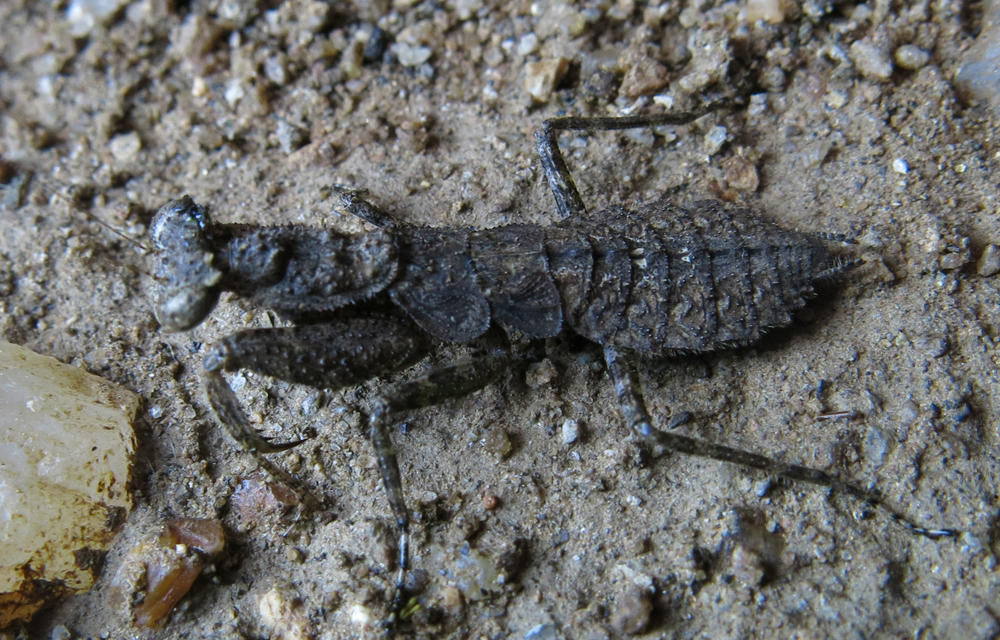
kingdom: Animalia
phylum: Arthropoda
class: Insecta
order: Mantodea
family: Dactylopterygidae
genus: Zouza
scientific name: Zouza radiosa
